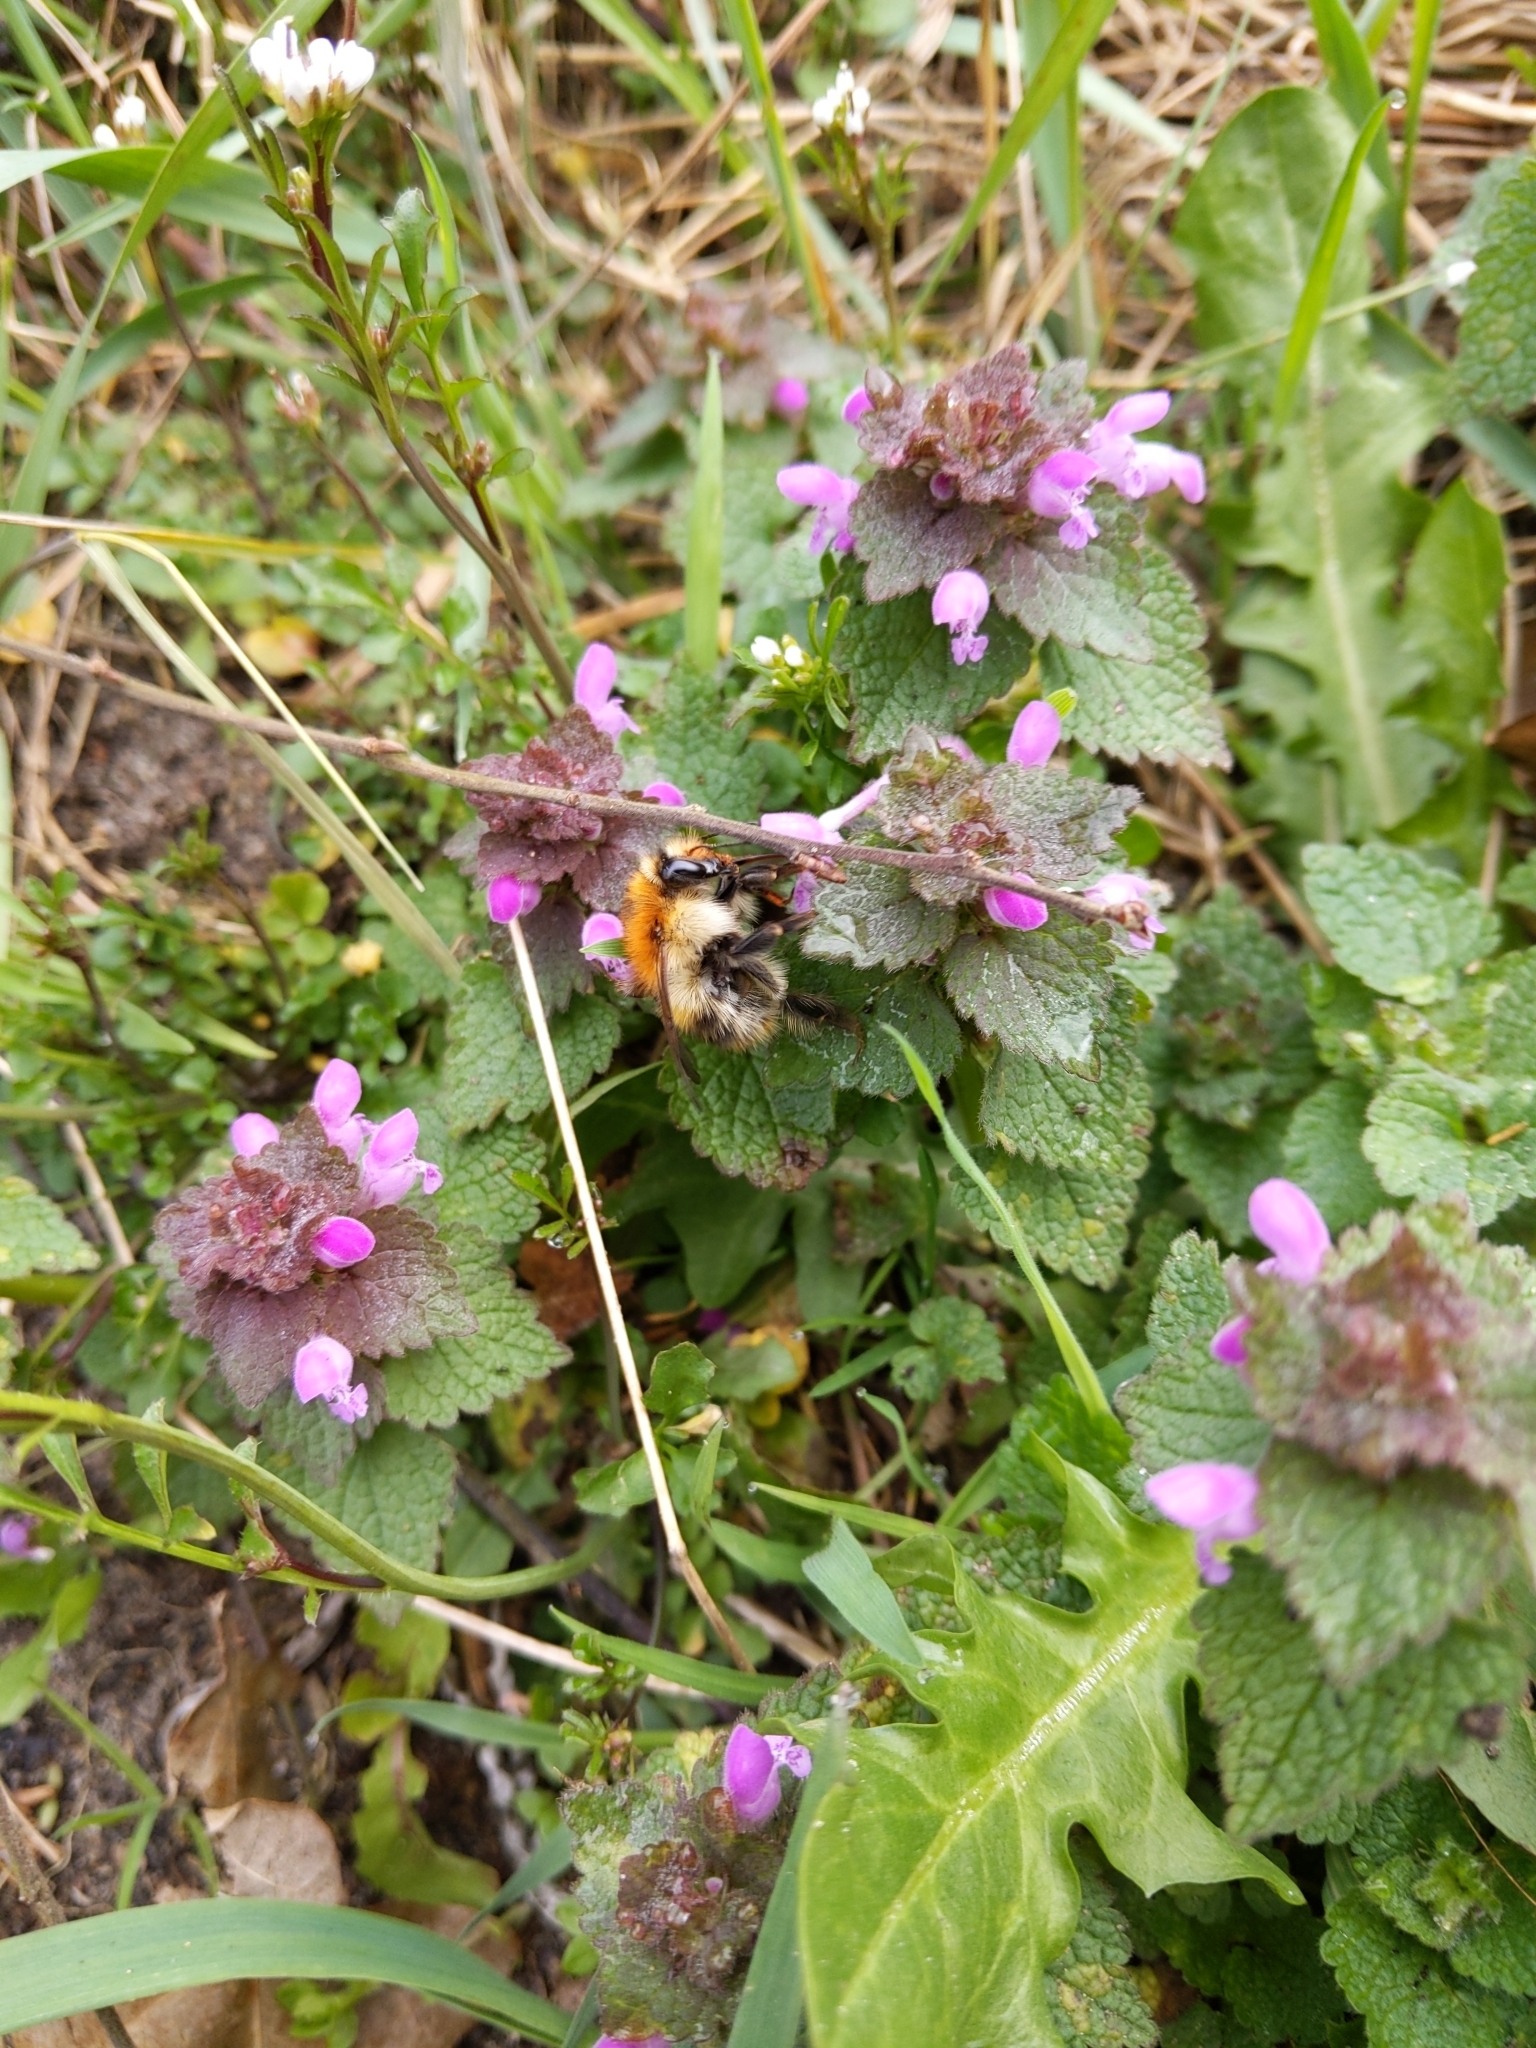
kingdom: Animalia
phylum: Arthropoda
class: Insecta
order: Hymenoptera
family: Apidae
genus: Bombus
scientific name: Bombus pascuorum
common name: Common carder bee
